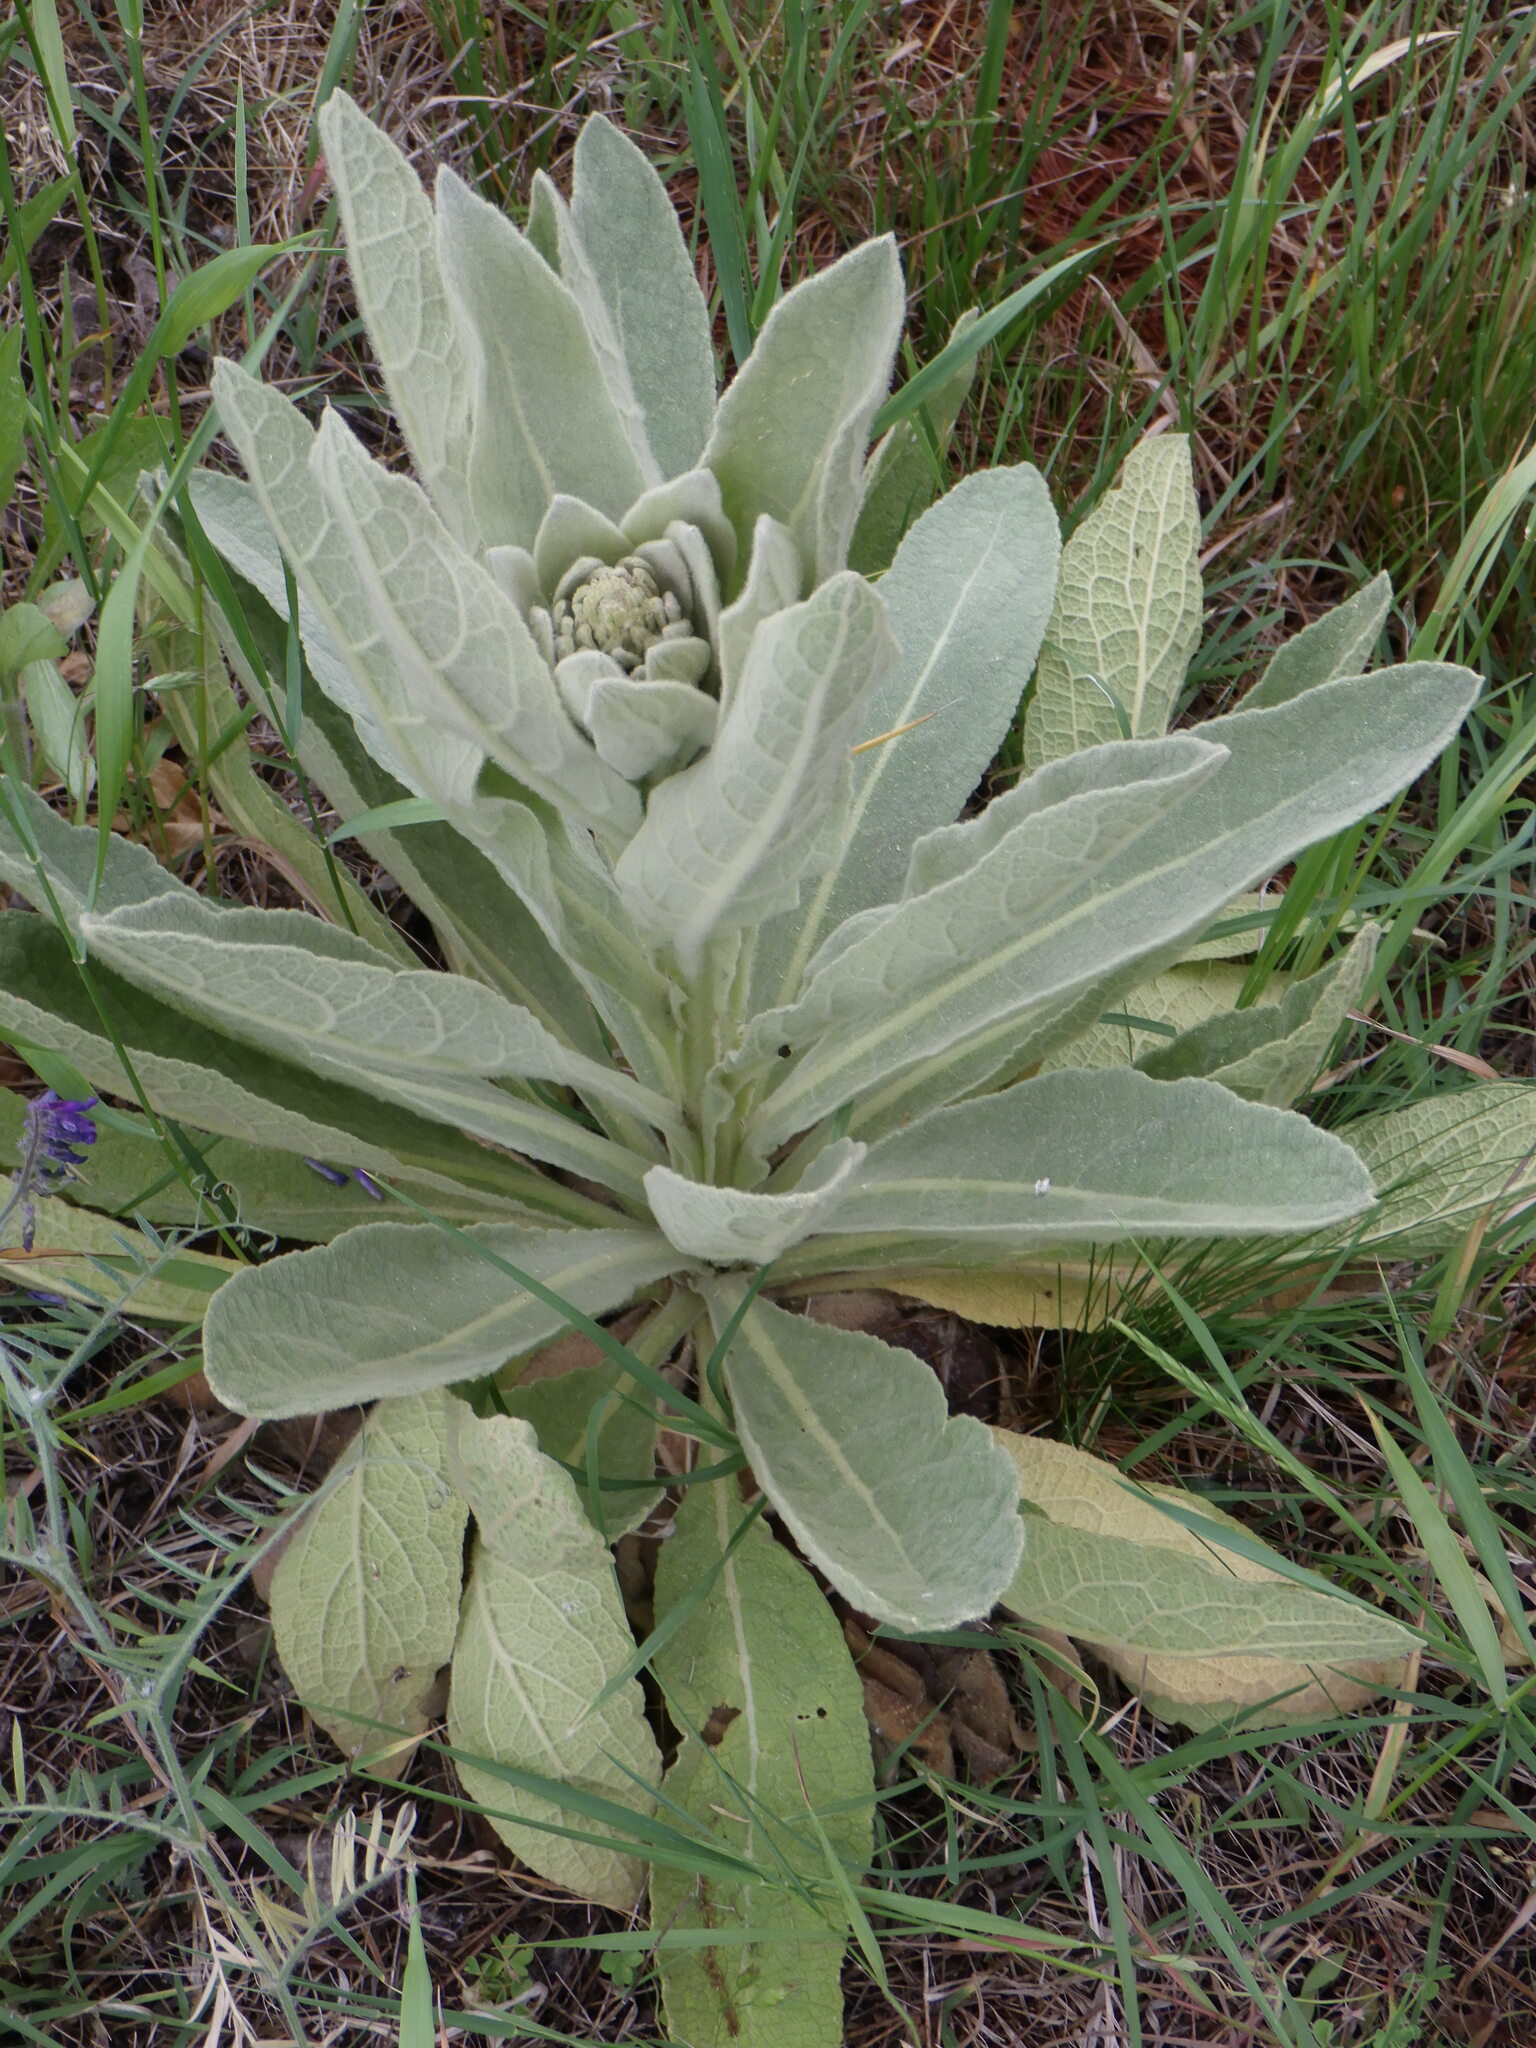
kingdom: Plantae
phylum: Tracheophyta
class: Magnoliopsida
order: Lamiales
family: Scrophulariaceae
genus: Verbascum
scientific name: Verbascum thapsus
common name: Common mullein
